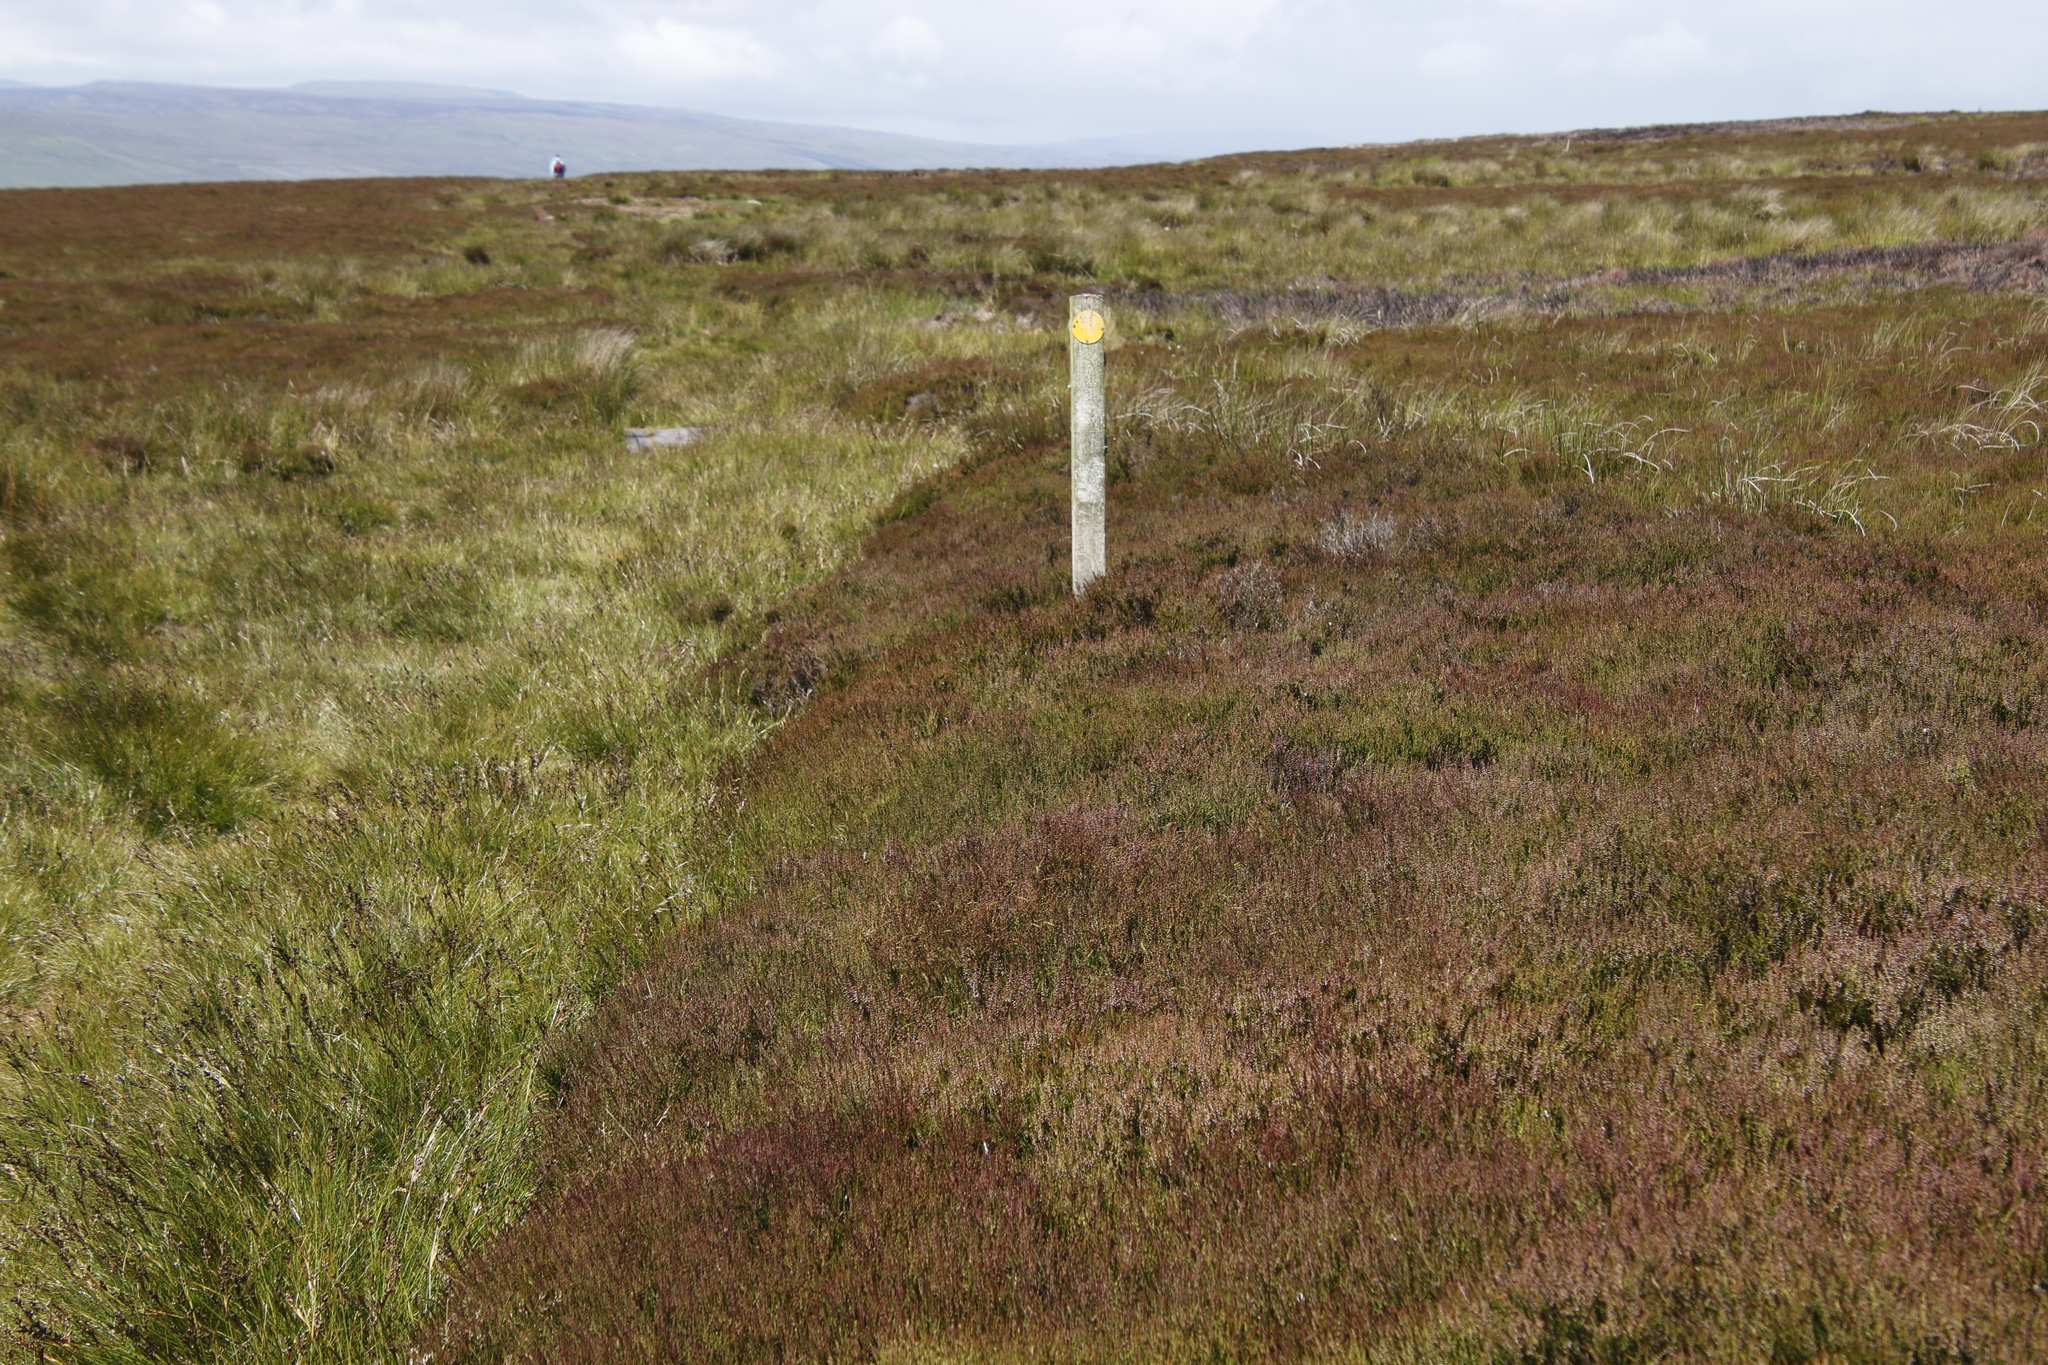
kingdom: Plantae
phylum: Tracheophyta
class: Magnoliopsida
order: Ericales
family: Ericaceae
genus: Calluna
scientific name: Calluna vulgaris
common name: Heather
